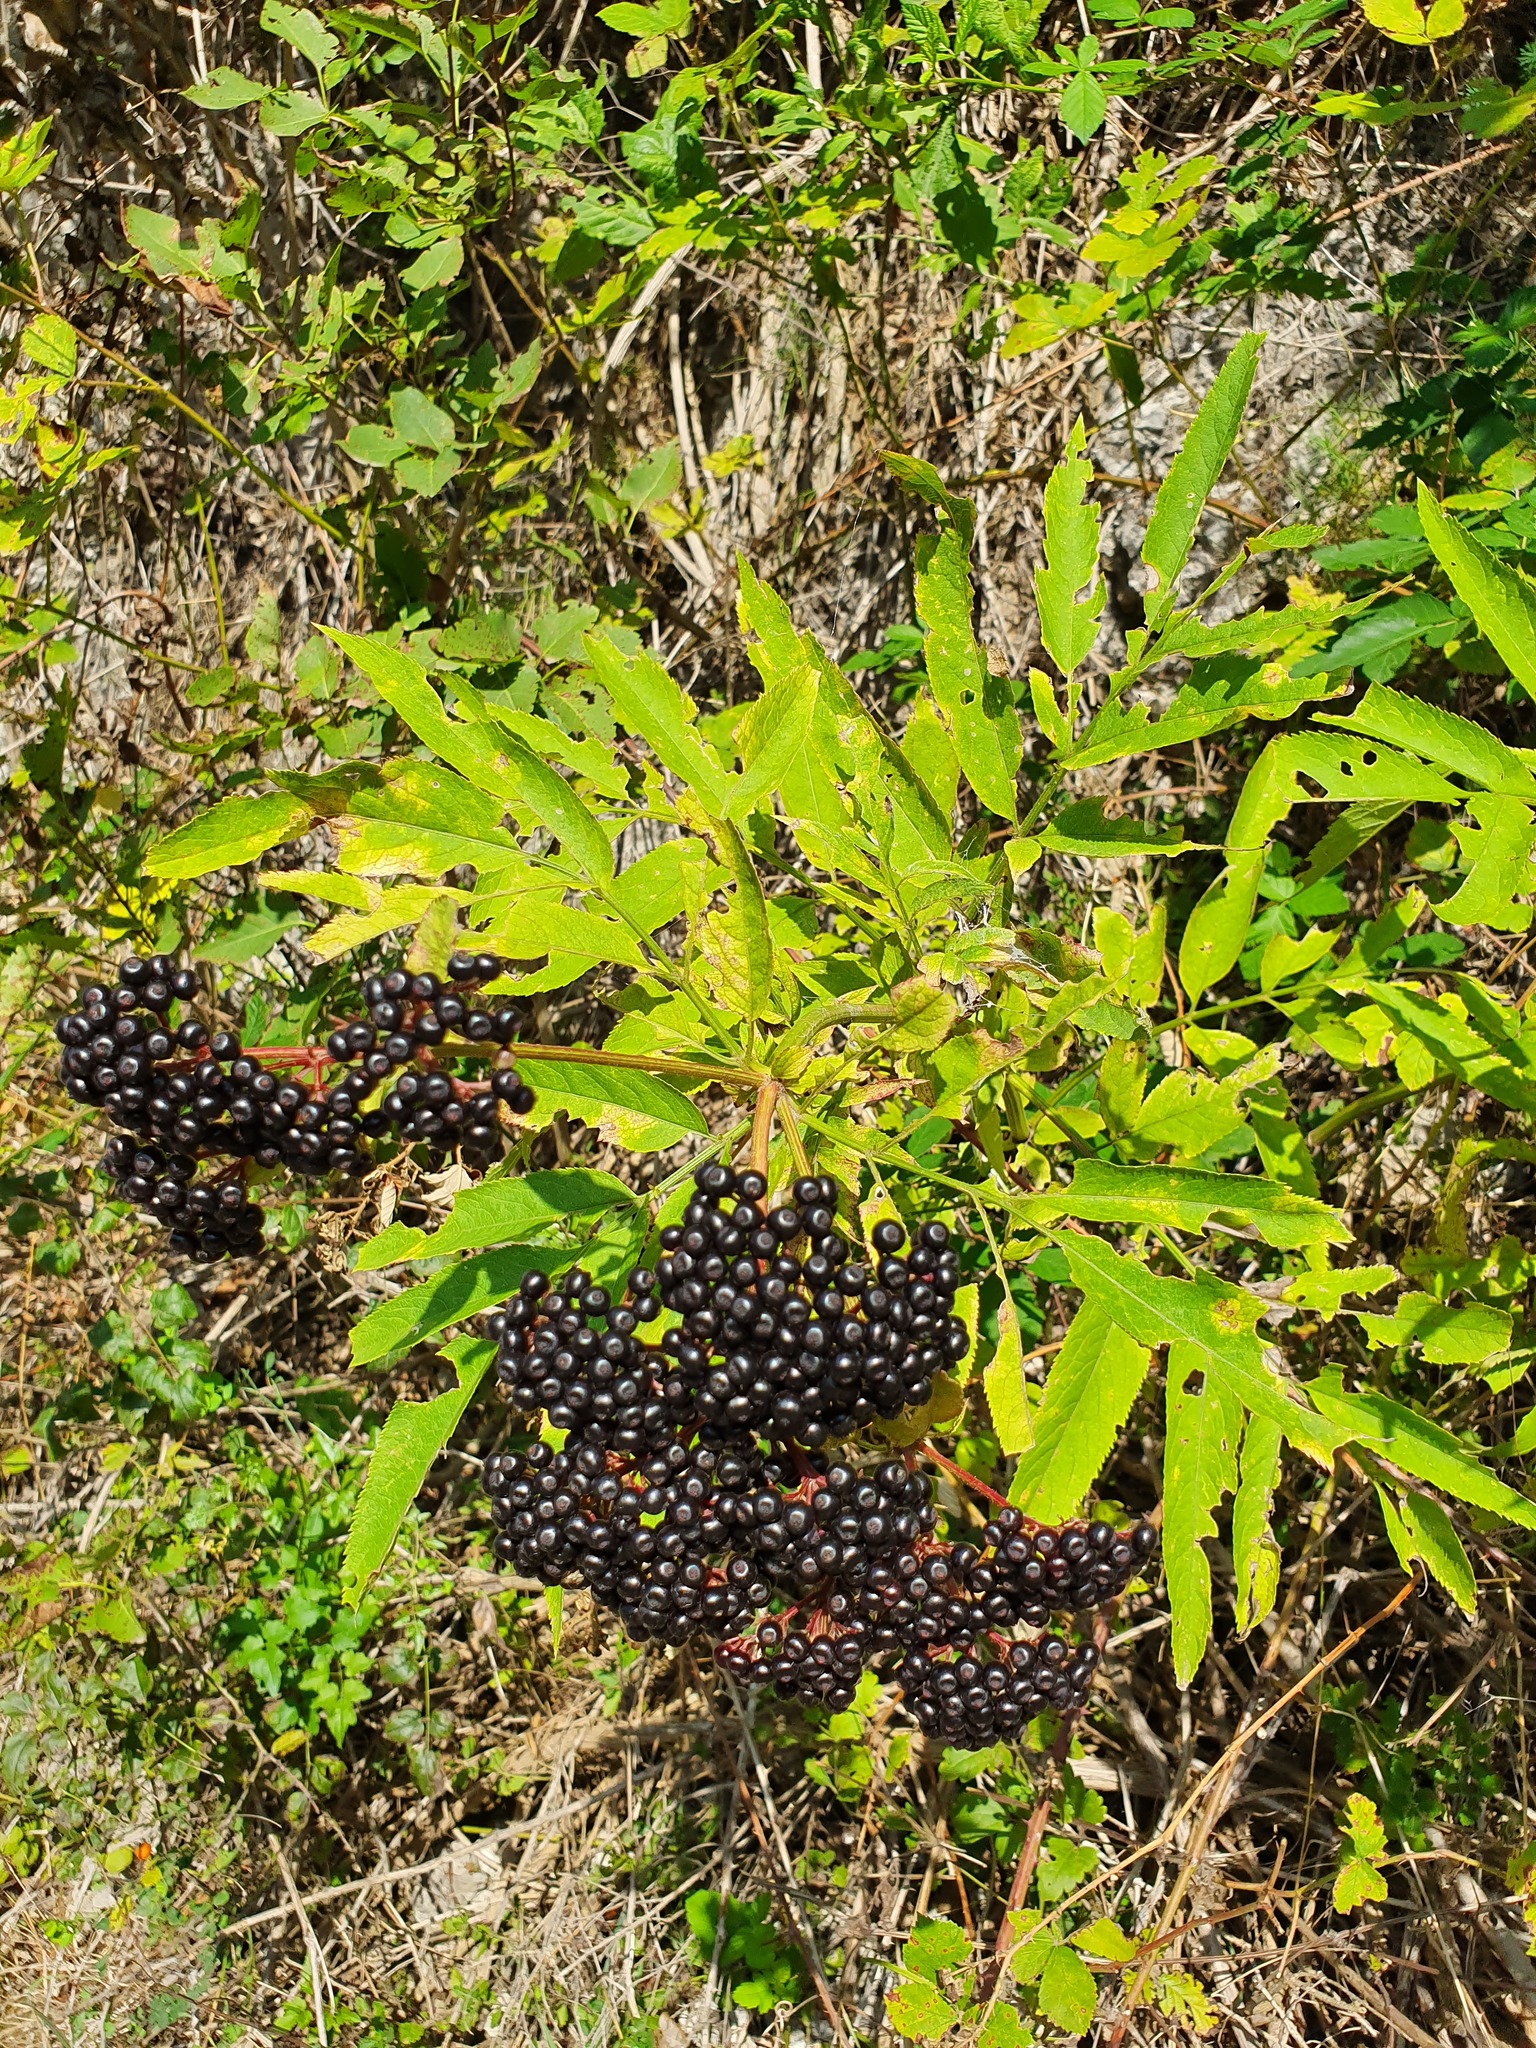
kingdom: Plantae
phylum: Tracheophyta
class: Magnoliopsida
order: Dipsacales
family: Viburnaceae
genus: Sambucus
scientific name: Sambucus ebulus
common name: Dwarf elder
